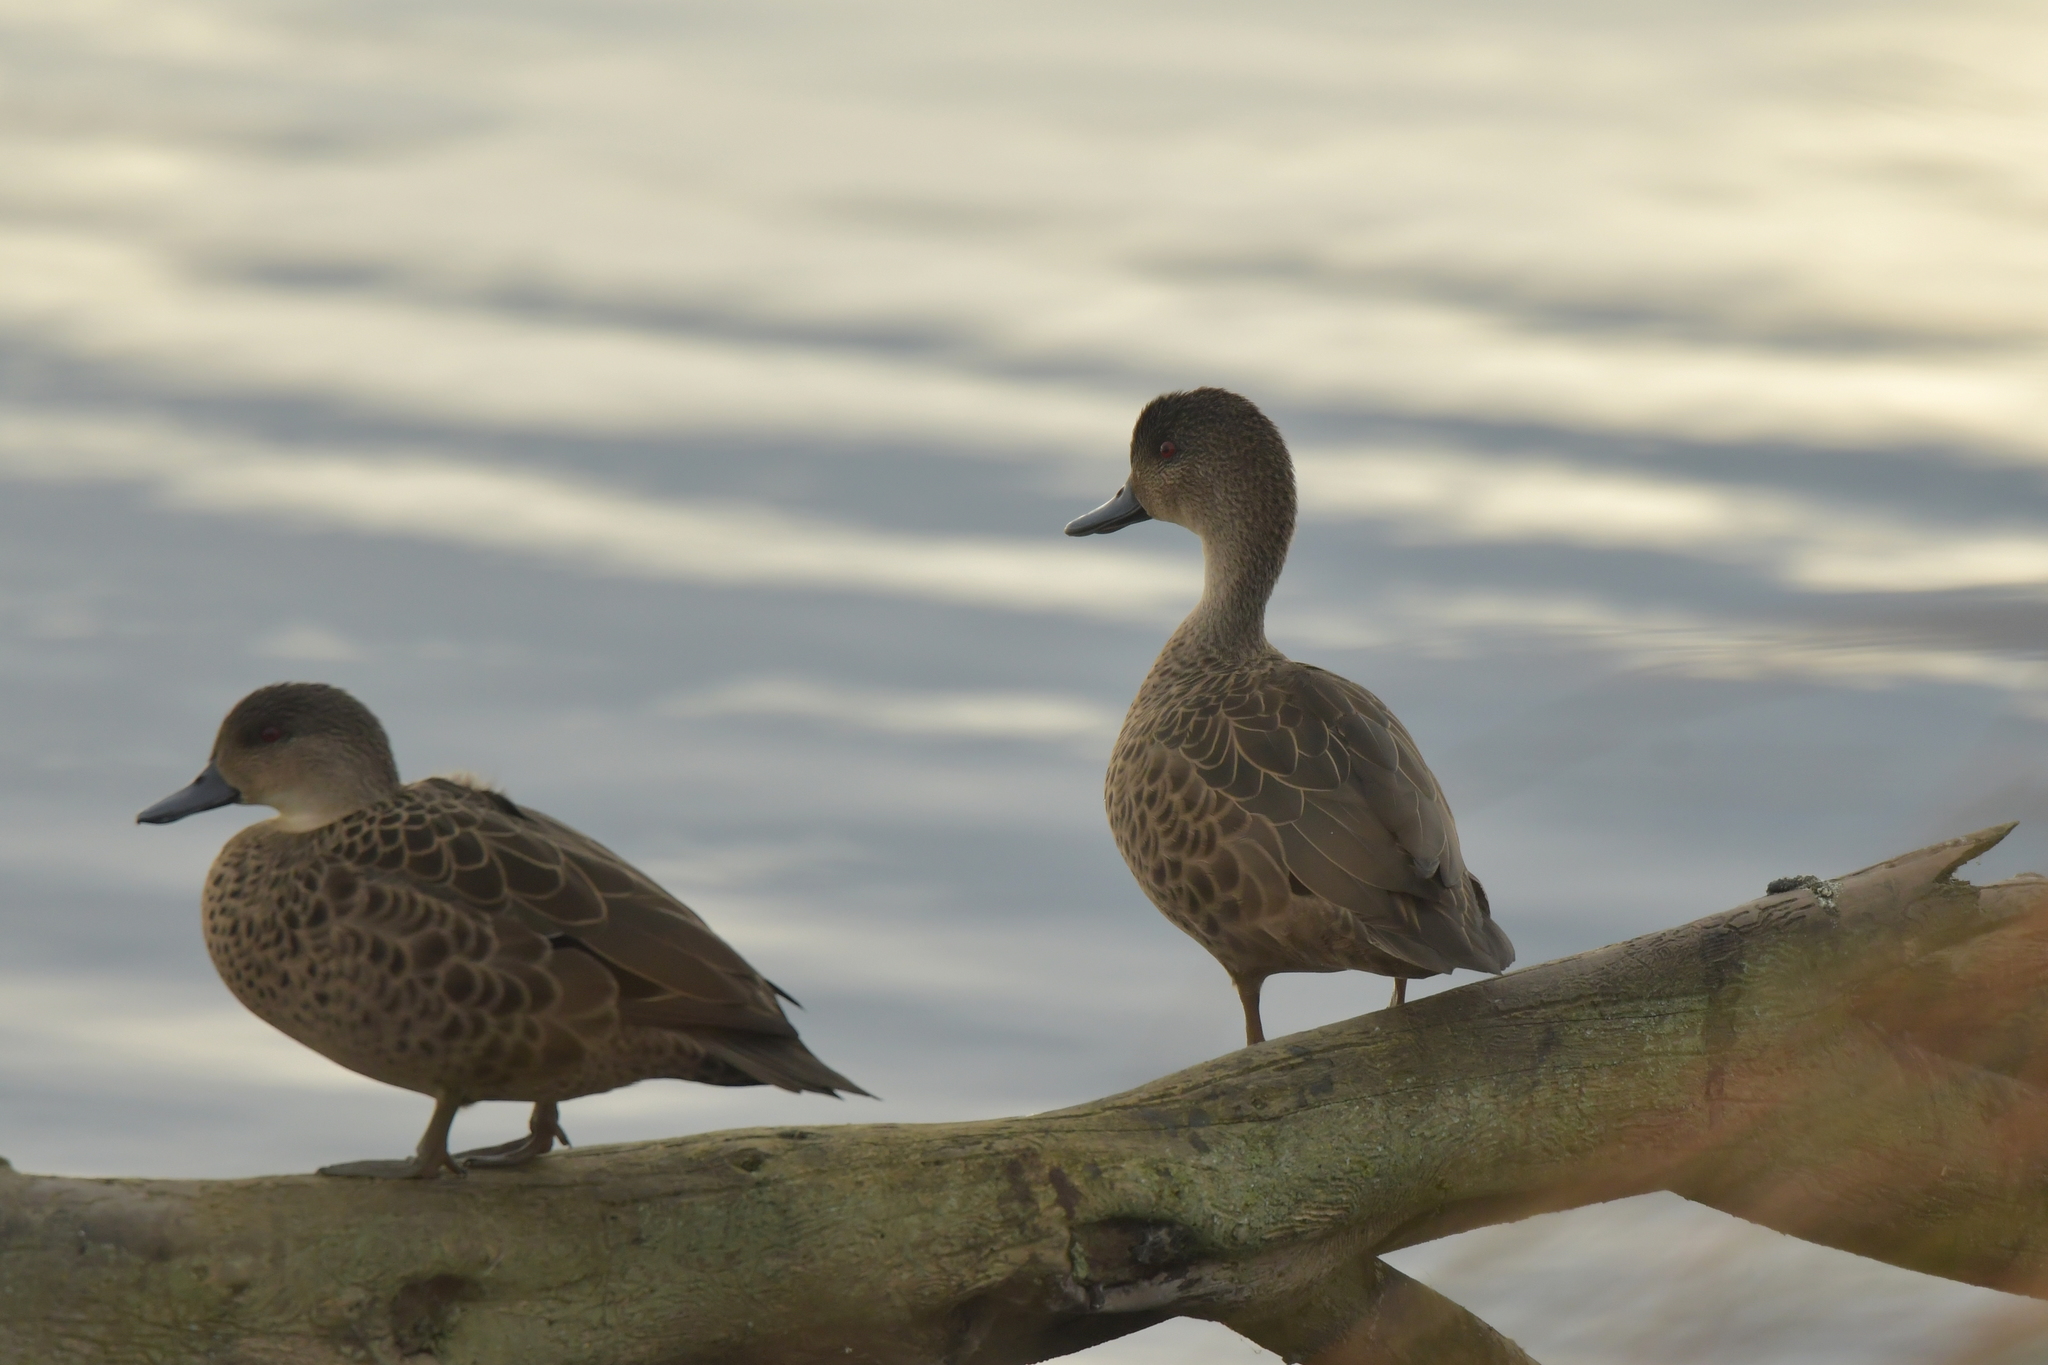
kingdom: Animalia
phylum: Chordata
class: Aves
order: Anseriformes
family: Anatidae
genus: Anas
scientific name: Anas gracilis
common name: Grey teal
